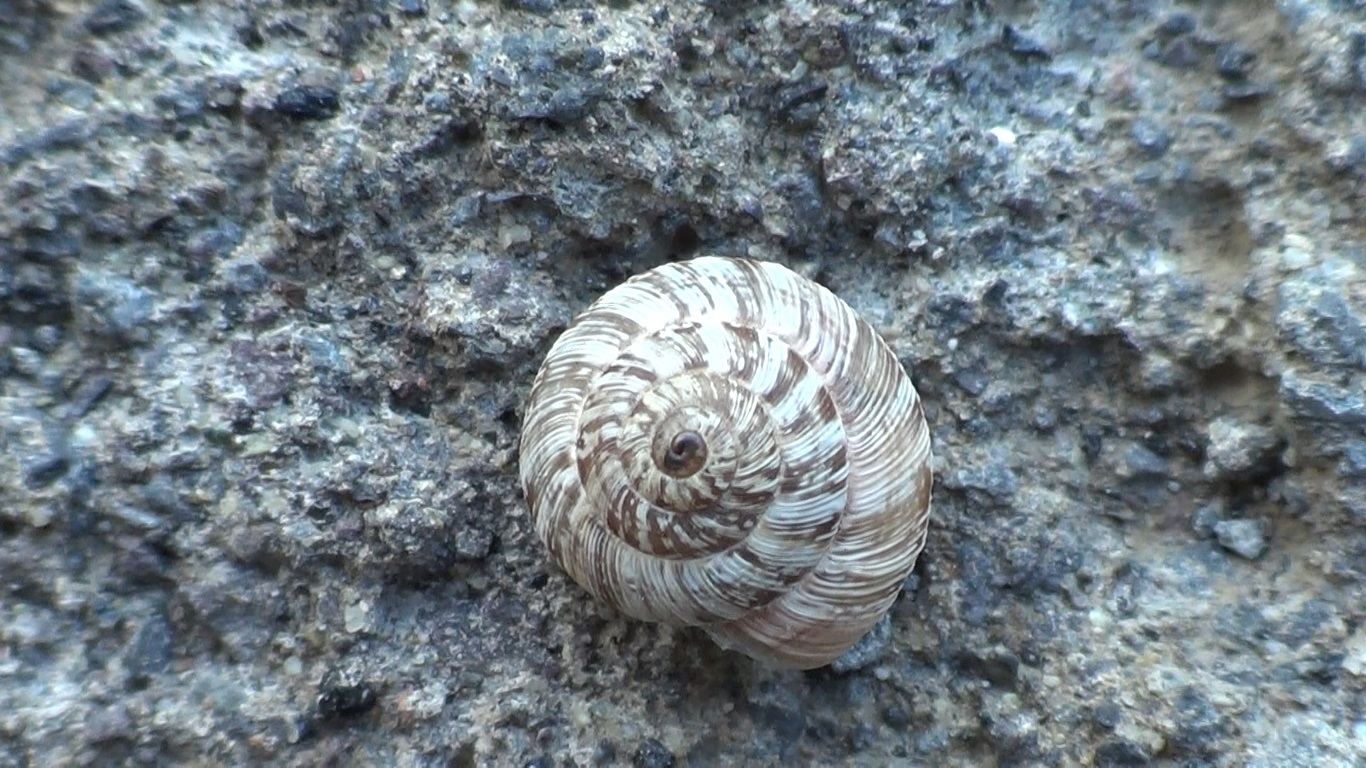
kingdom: Animalia
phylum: Mollusca
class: Gastropoda
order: Stylommatophora
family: Helicidae
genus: Marmorana
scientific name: Marmorana muralis
